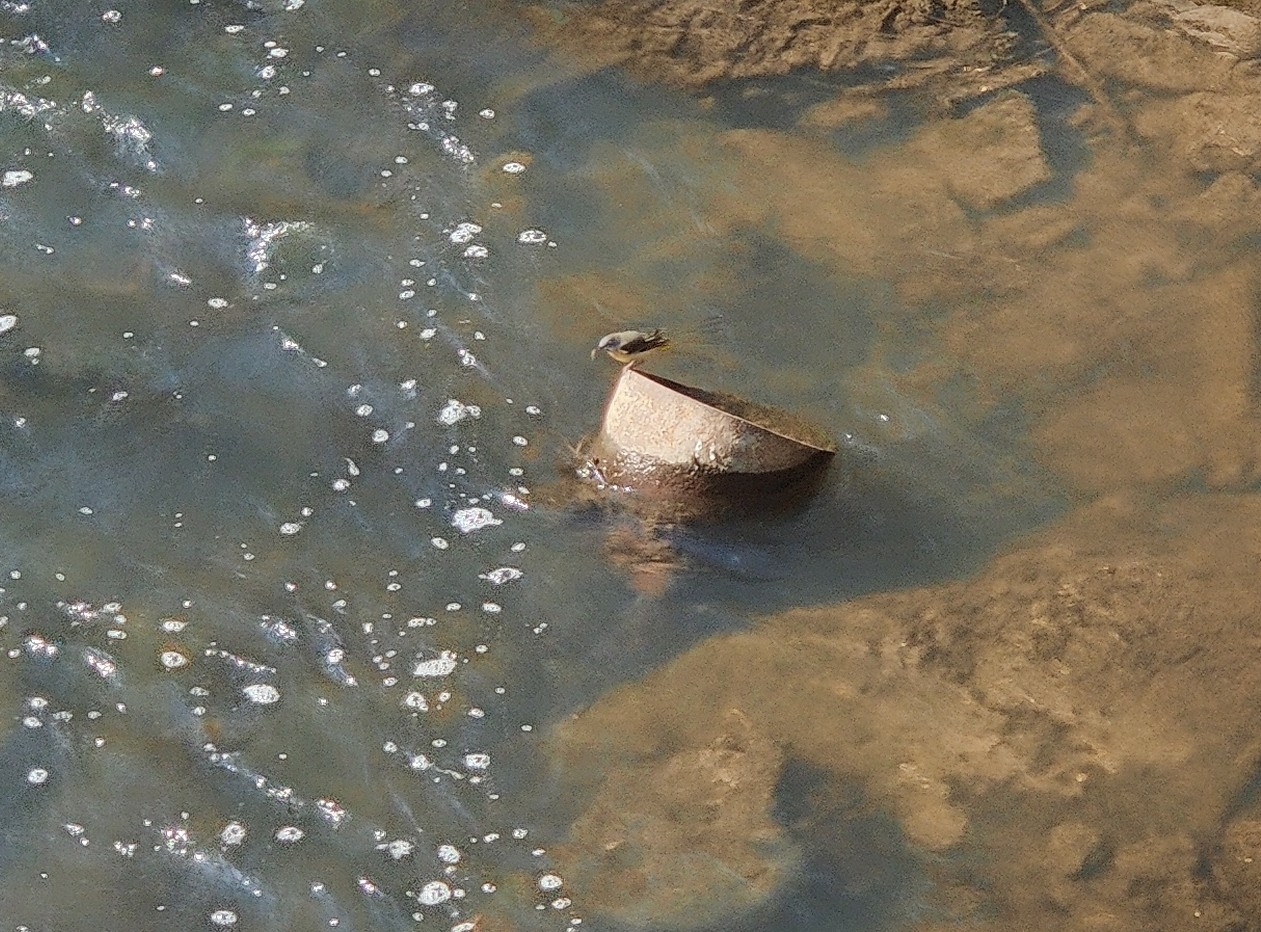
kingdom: Animalia
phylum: Chordata
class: Aves
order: Passeriformes
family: Motacillidae
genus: Motacilla
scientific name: Motacilla cinerea
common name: Grey wagtail
